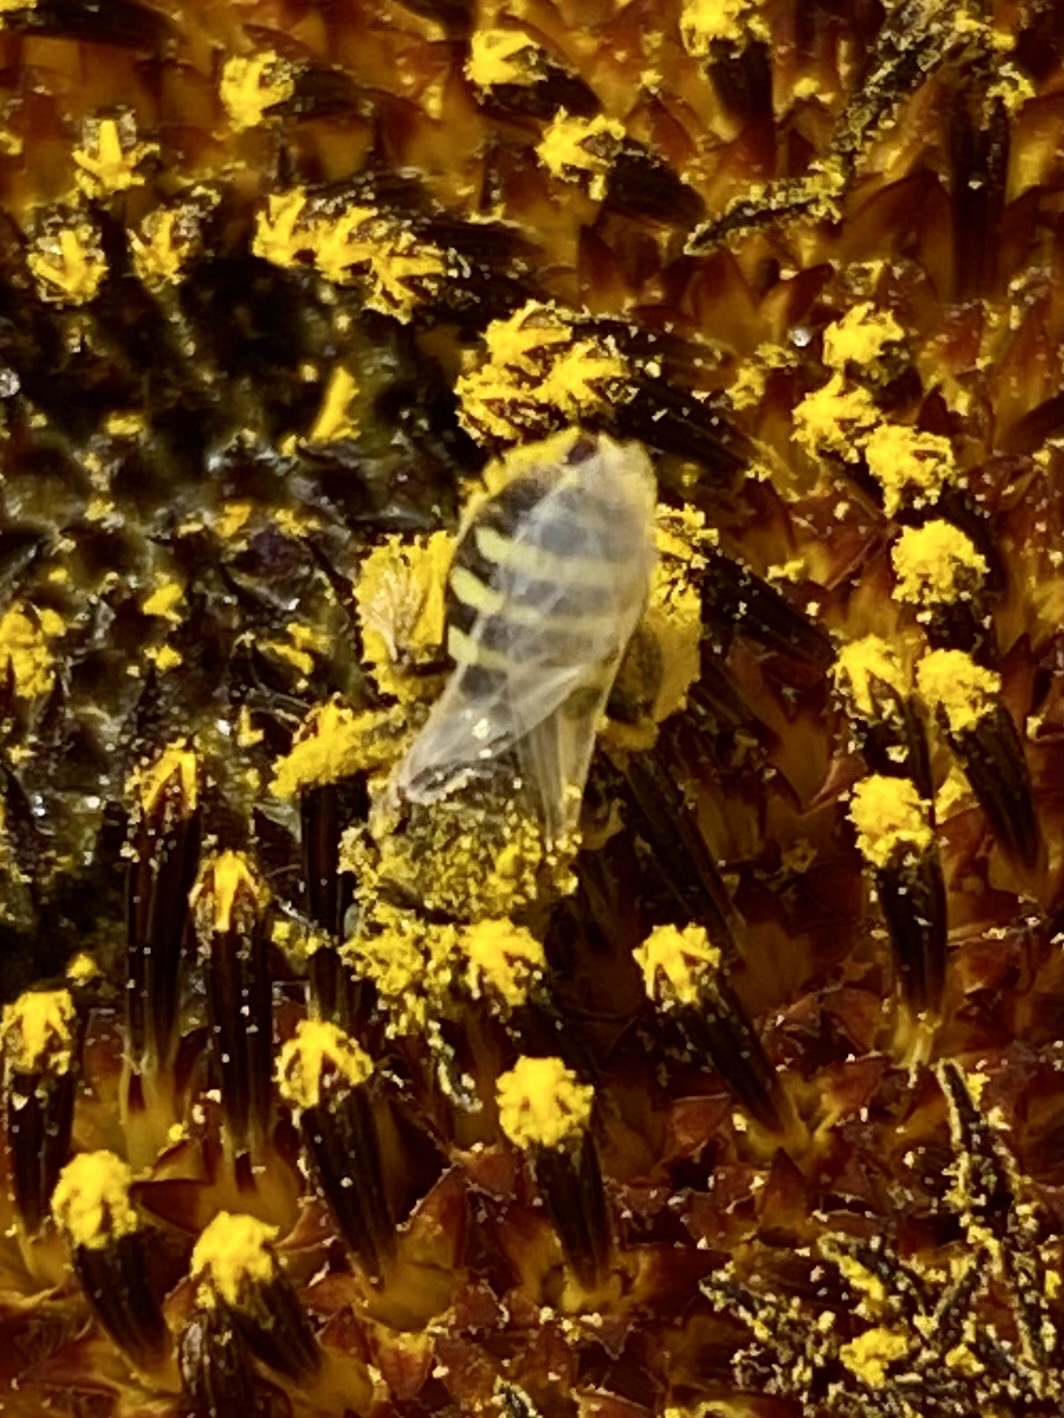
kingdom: Animalia
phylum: Arthropoda
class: Insecta
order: Hymenoptera
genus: Cockerellia
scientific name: Cockerellia
